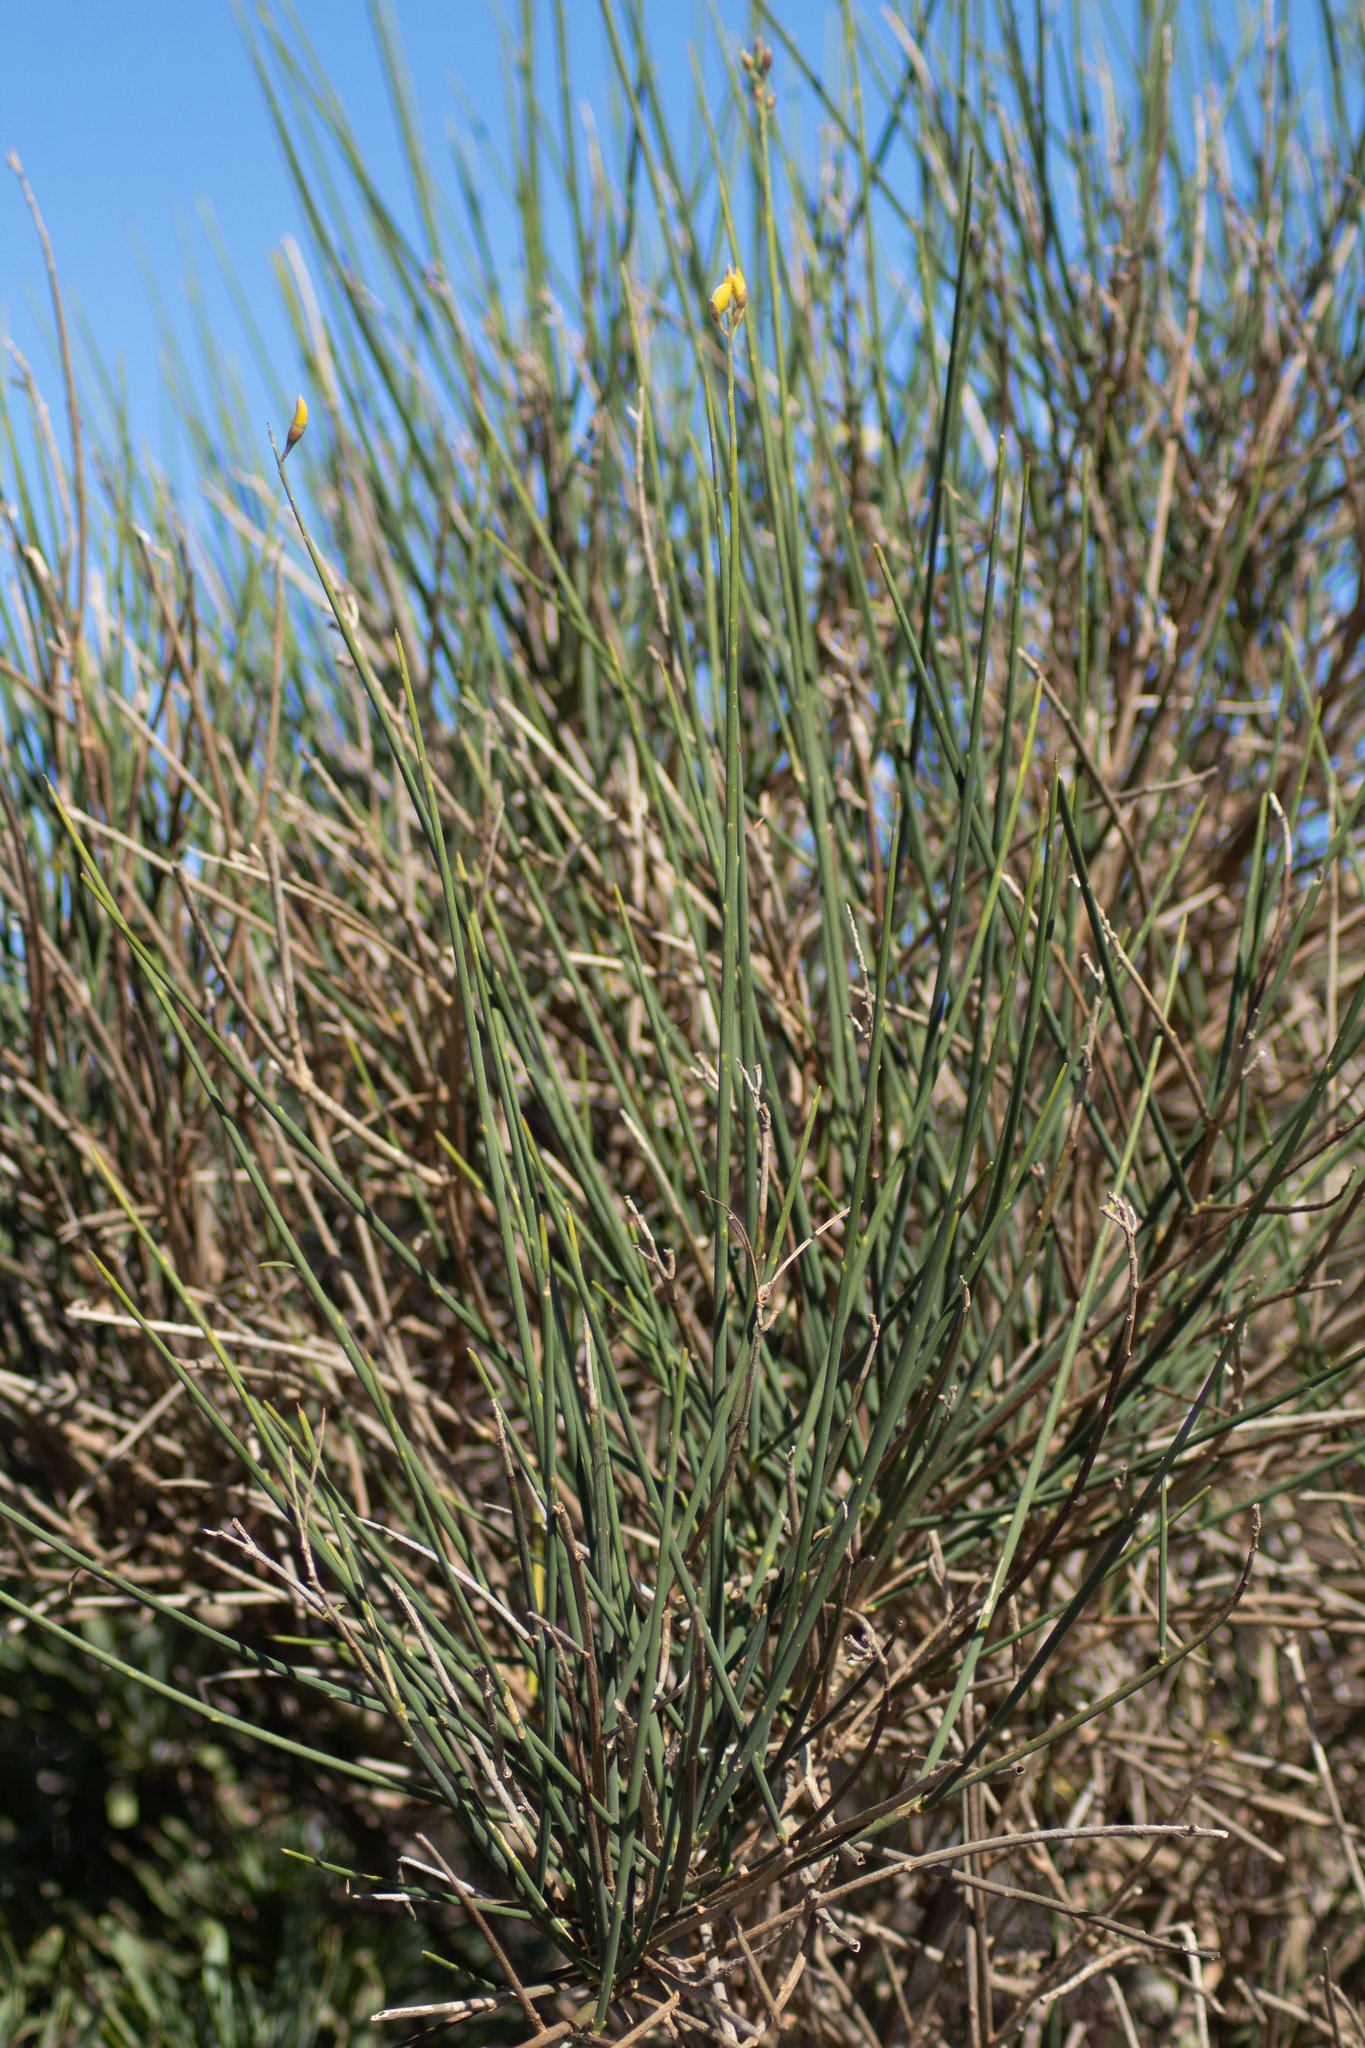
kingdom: Plantae
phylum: Tracheophyta
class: Magnoliopsida
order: Fabales
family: Fabaceae
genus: Spartium
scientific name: Spartium junceum
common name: Spanish broom
